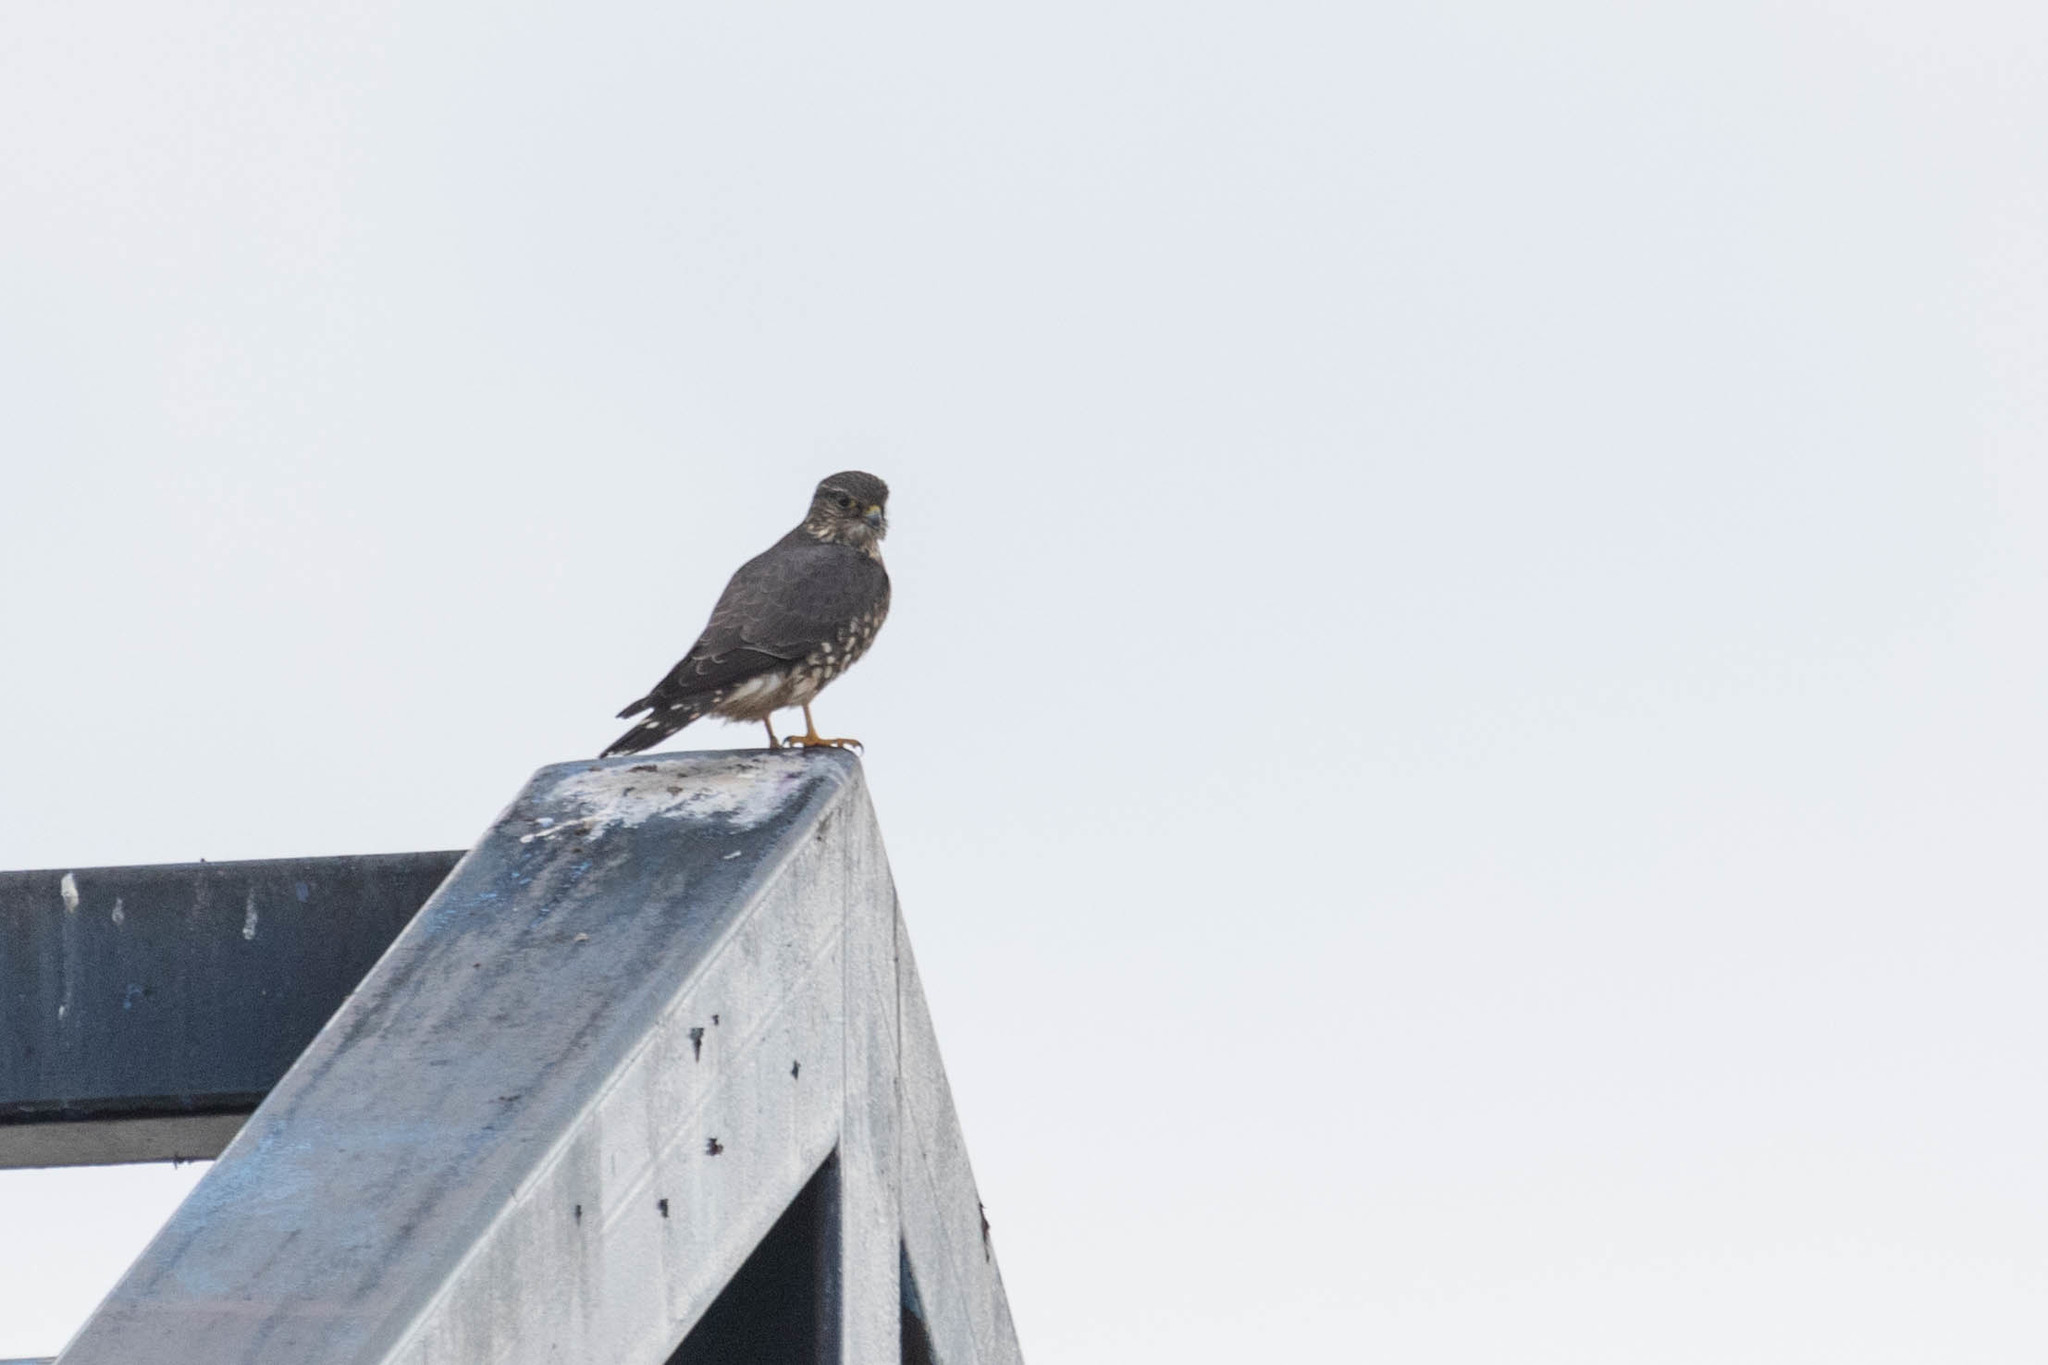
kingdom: Animalia
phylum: Chordata
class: Aves
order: Falconiformes
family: Falconidae
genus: Falco
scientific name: Falco columbarius
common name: Merlin
